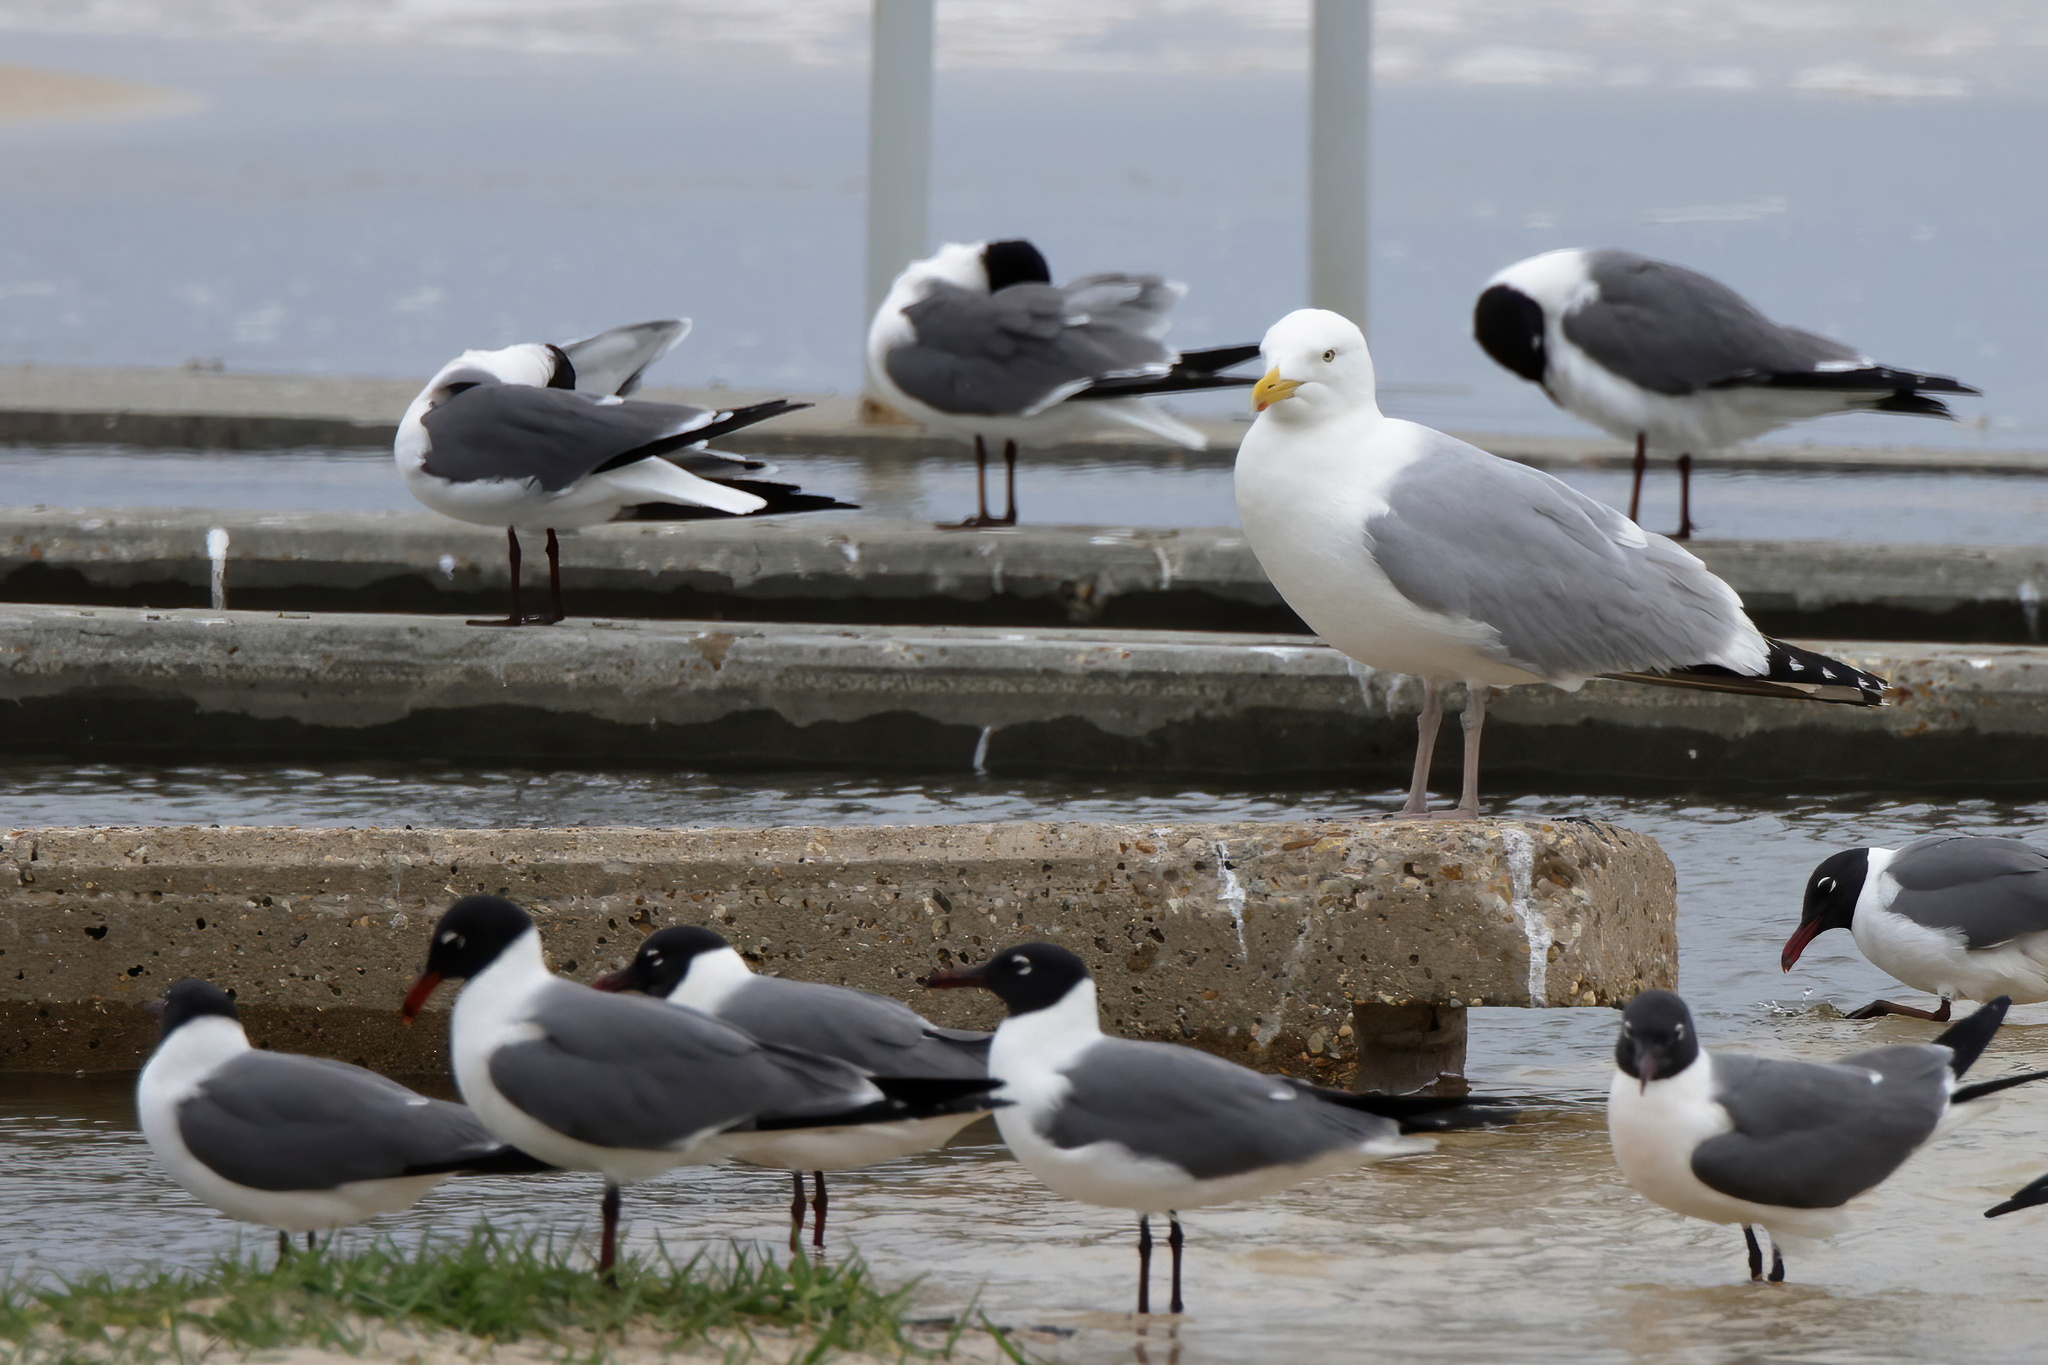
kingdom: Animalia
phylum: Chordata
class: Aves
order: Charadriiformes
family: Laridae
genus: Larus
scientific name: Larus argentatus
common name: Herring gull
